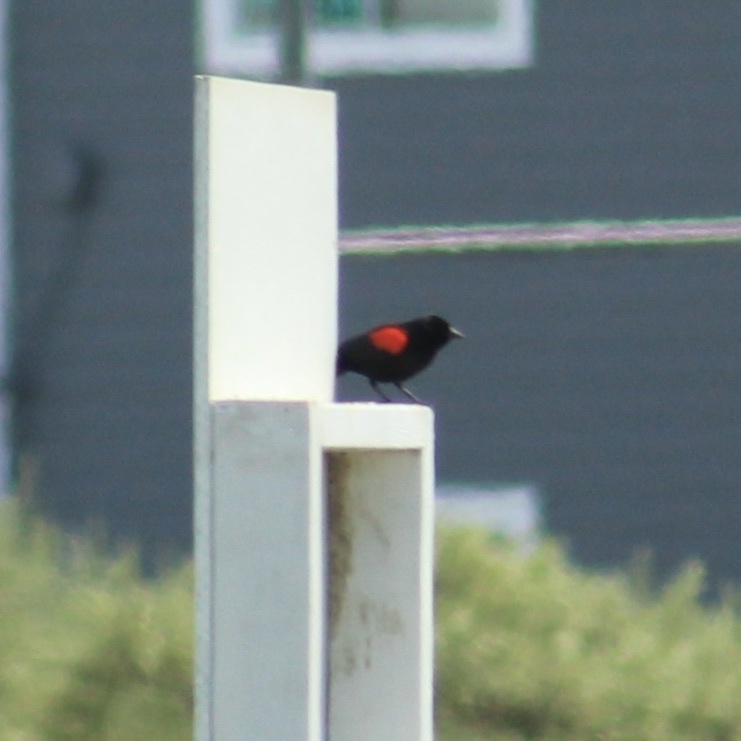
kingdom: Animalia
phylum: Chordata
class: Aves
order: Passeriformes
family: Icteridae
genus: Agelaius
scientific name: Agelaius phoeniceus
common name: Red-winged blackbird
